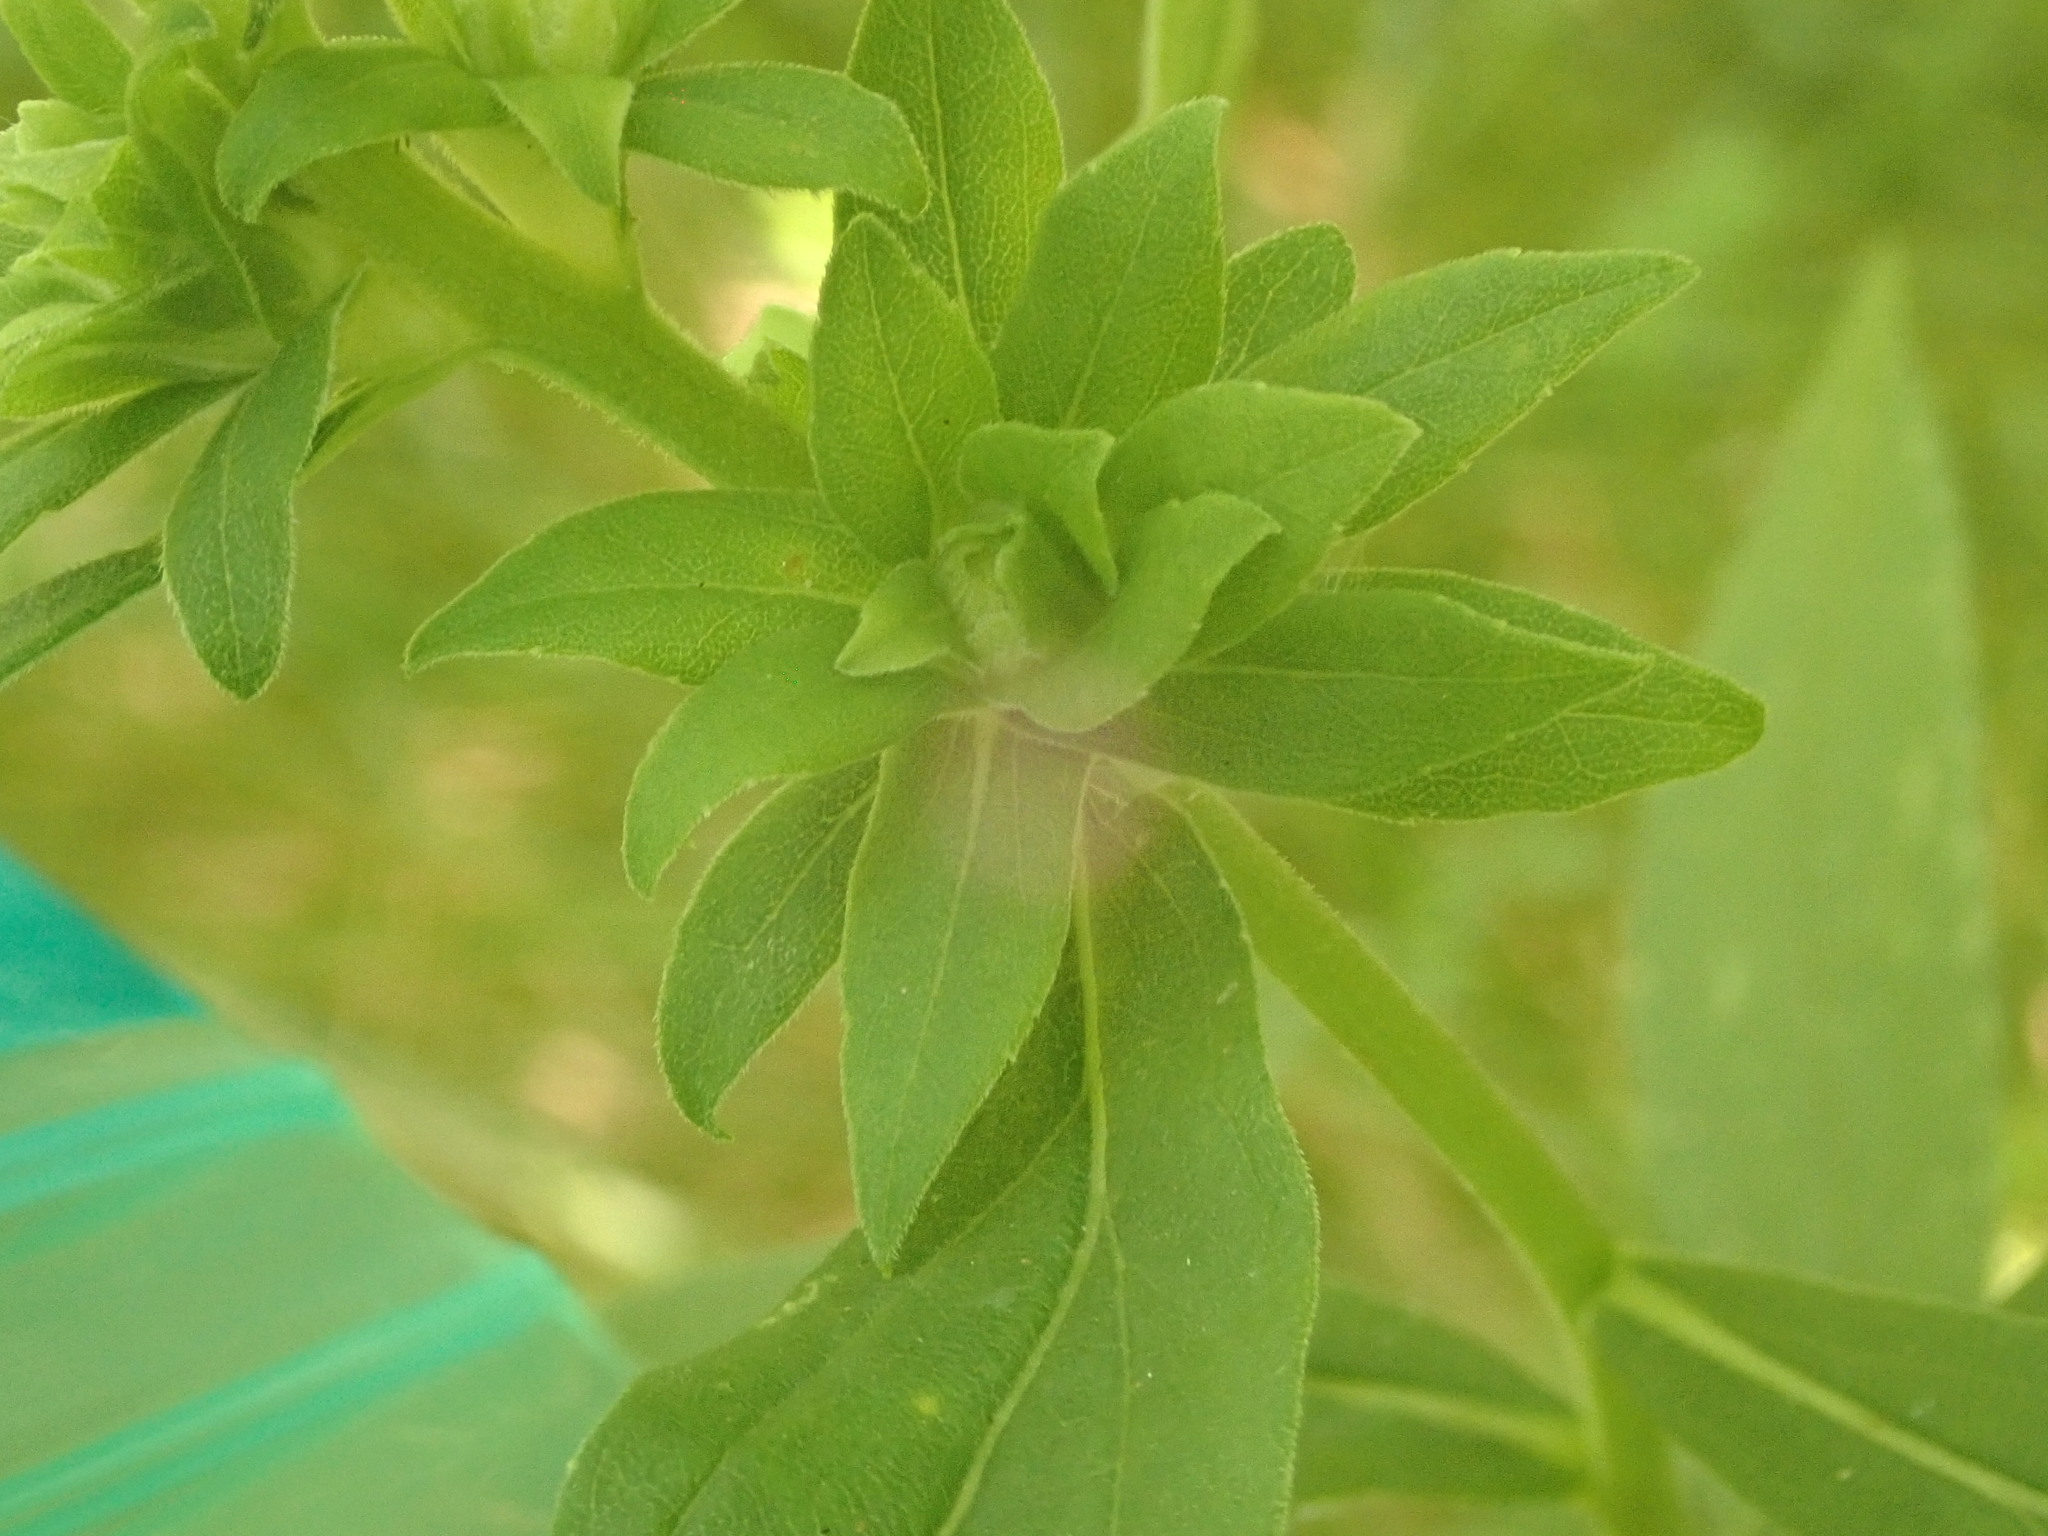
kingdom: Animalia
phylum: Arthropoda
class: Insecta
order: Diptera
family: Tephritidae
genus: Procecidochares
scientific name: Procecidochares atra
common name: Goldenrod brussels sprout gall fly
